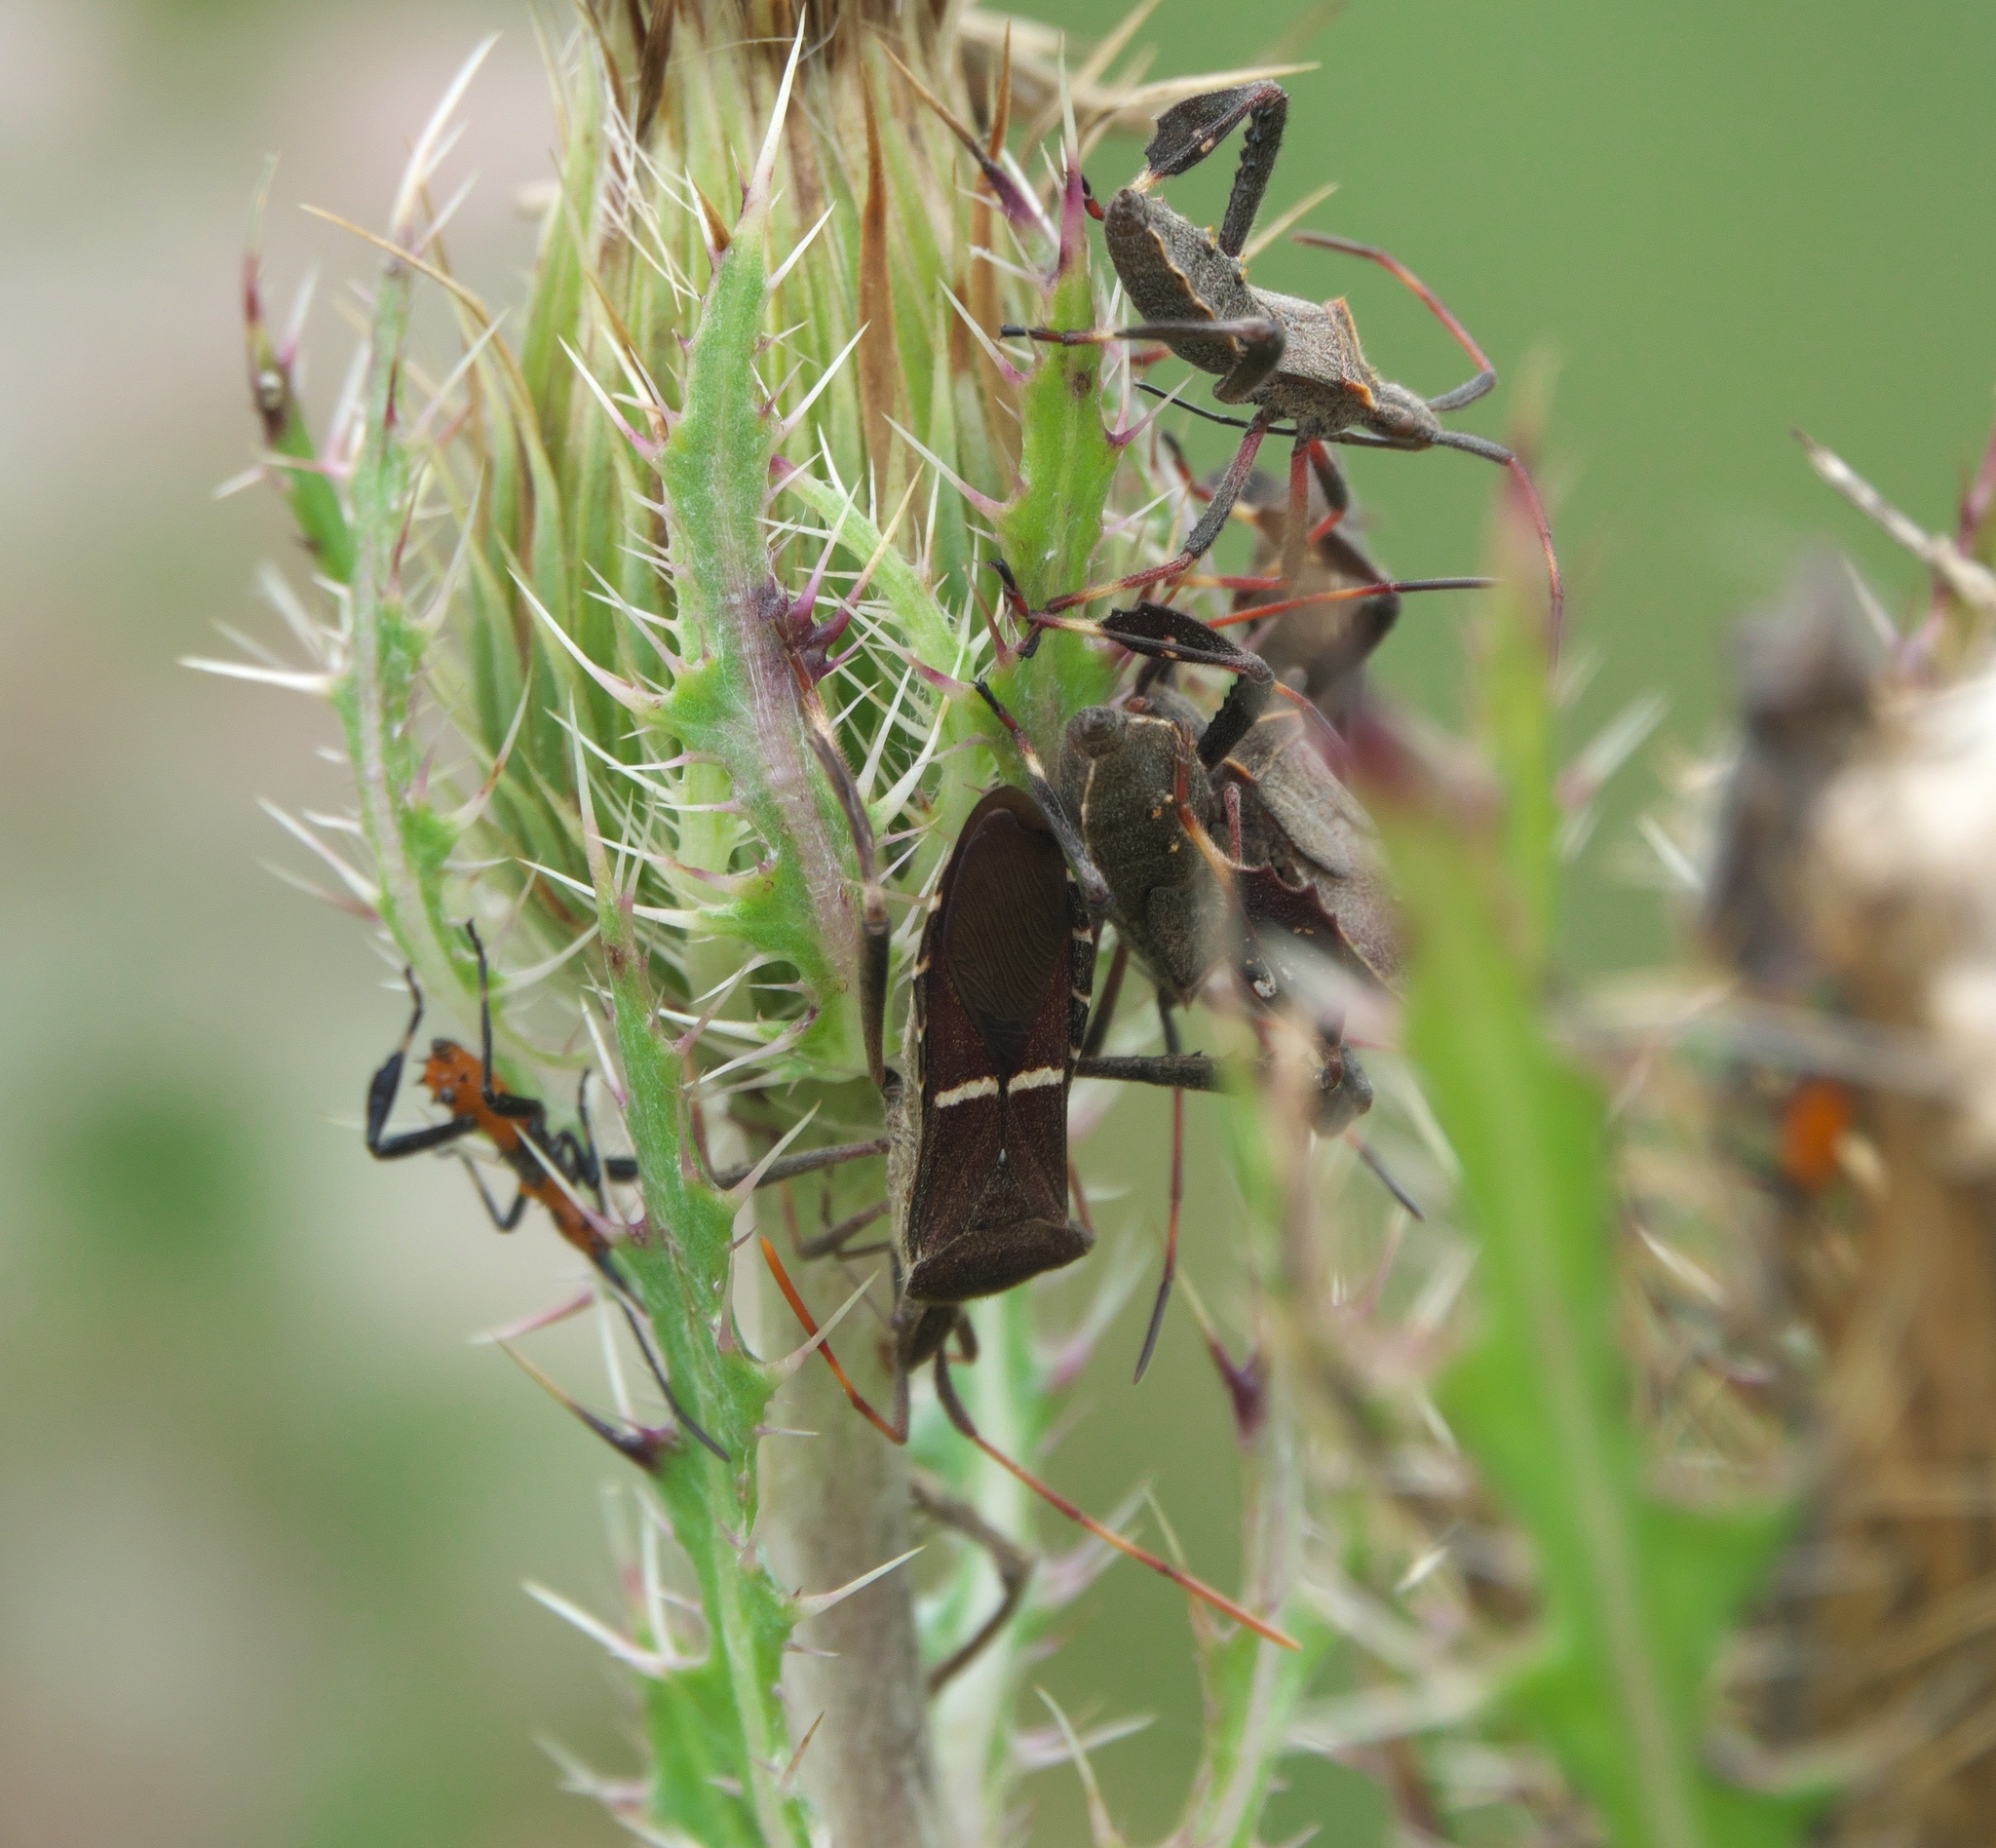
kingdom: Animalia
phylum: Arthropoda
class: Insecta
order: Hemiptera
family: Coreidae
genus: Leptoglossus
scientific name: Leptoglossus phyllopus
